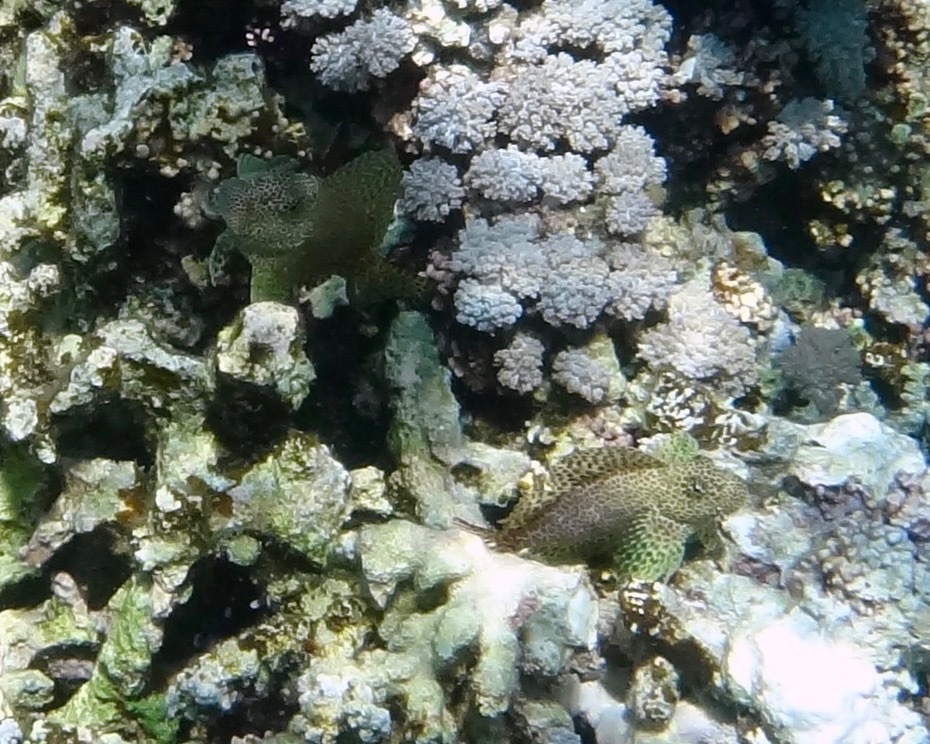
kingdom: Animalia
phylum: Chordata
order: Perciformes
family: Blenniidae
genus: Exallias
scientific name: Exallias brevis
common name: Leopard blenny
